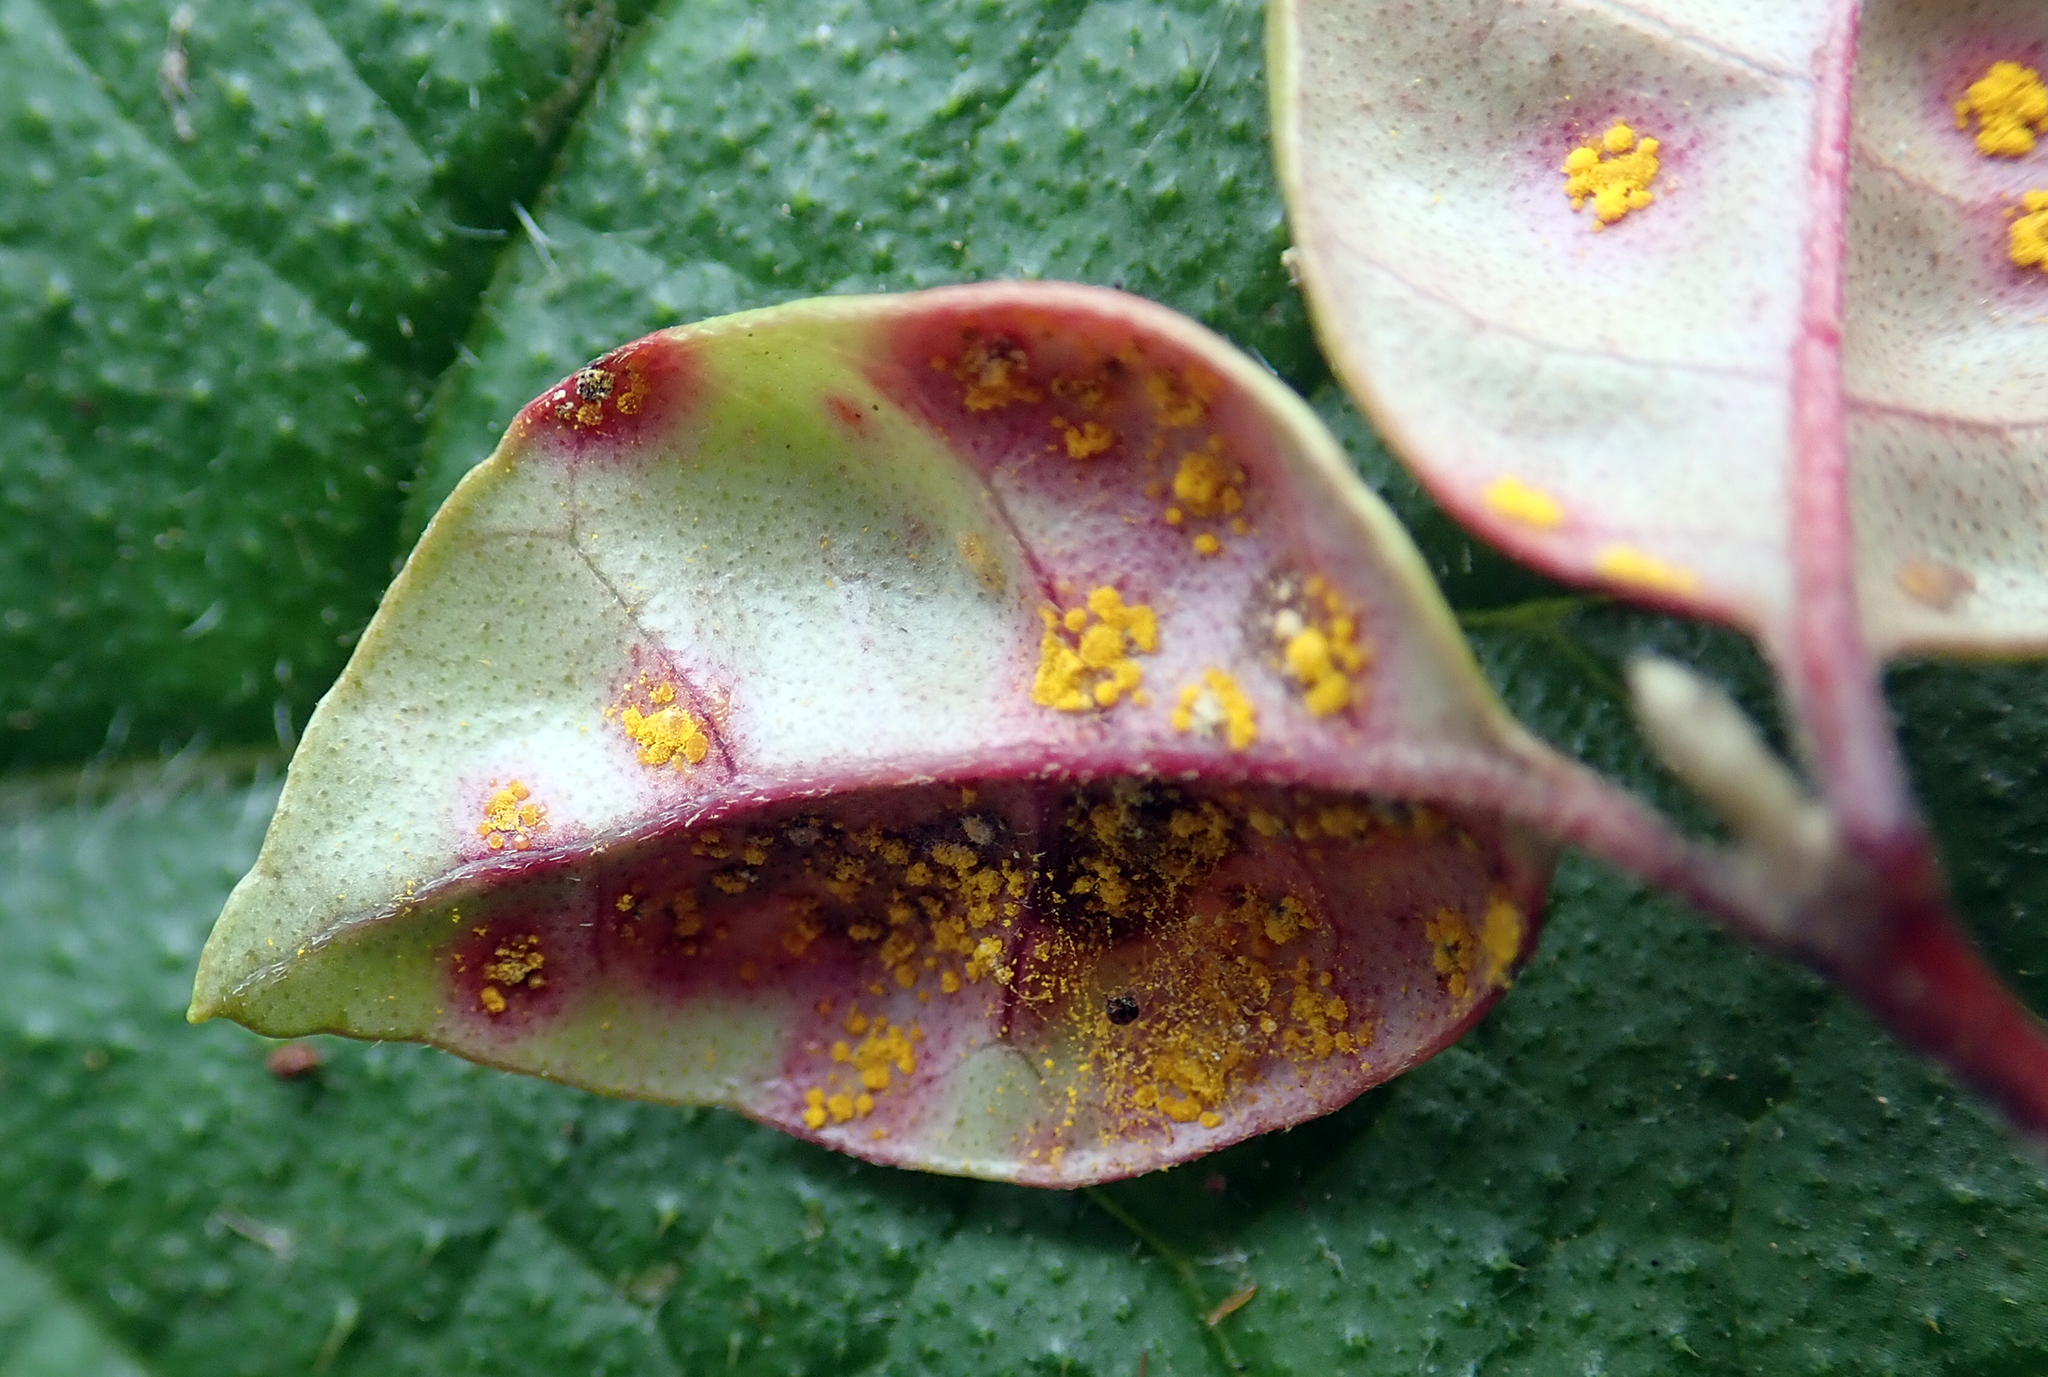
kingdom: Fungi
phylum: Basidiomycota
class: Pucciniomycetes
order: Pucciniales
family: Sphaerophragmiaceae
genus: Austropuccinia
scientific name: Austropuccinia psidii
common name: Myrtle rust
